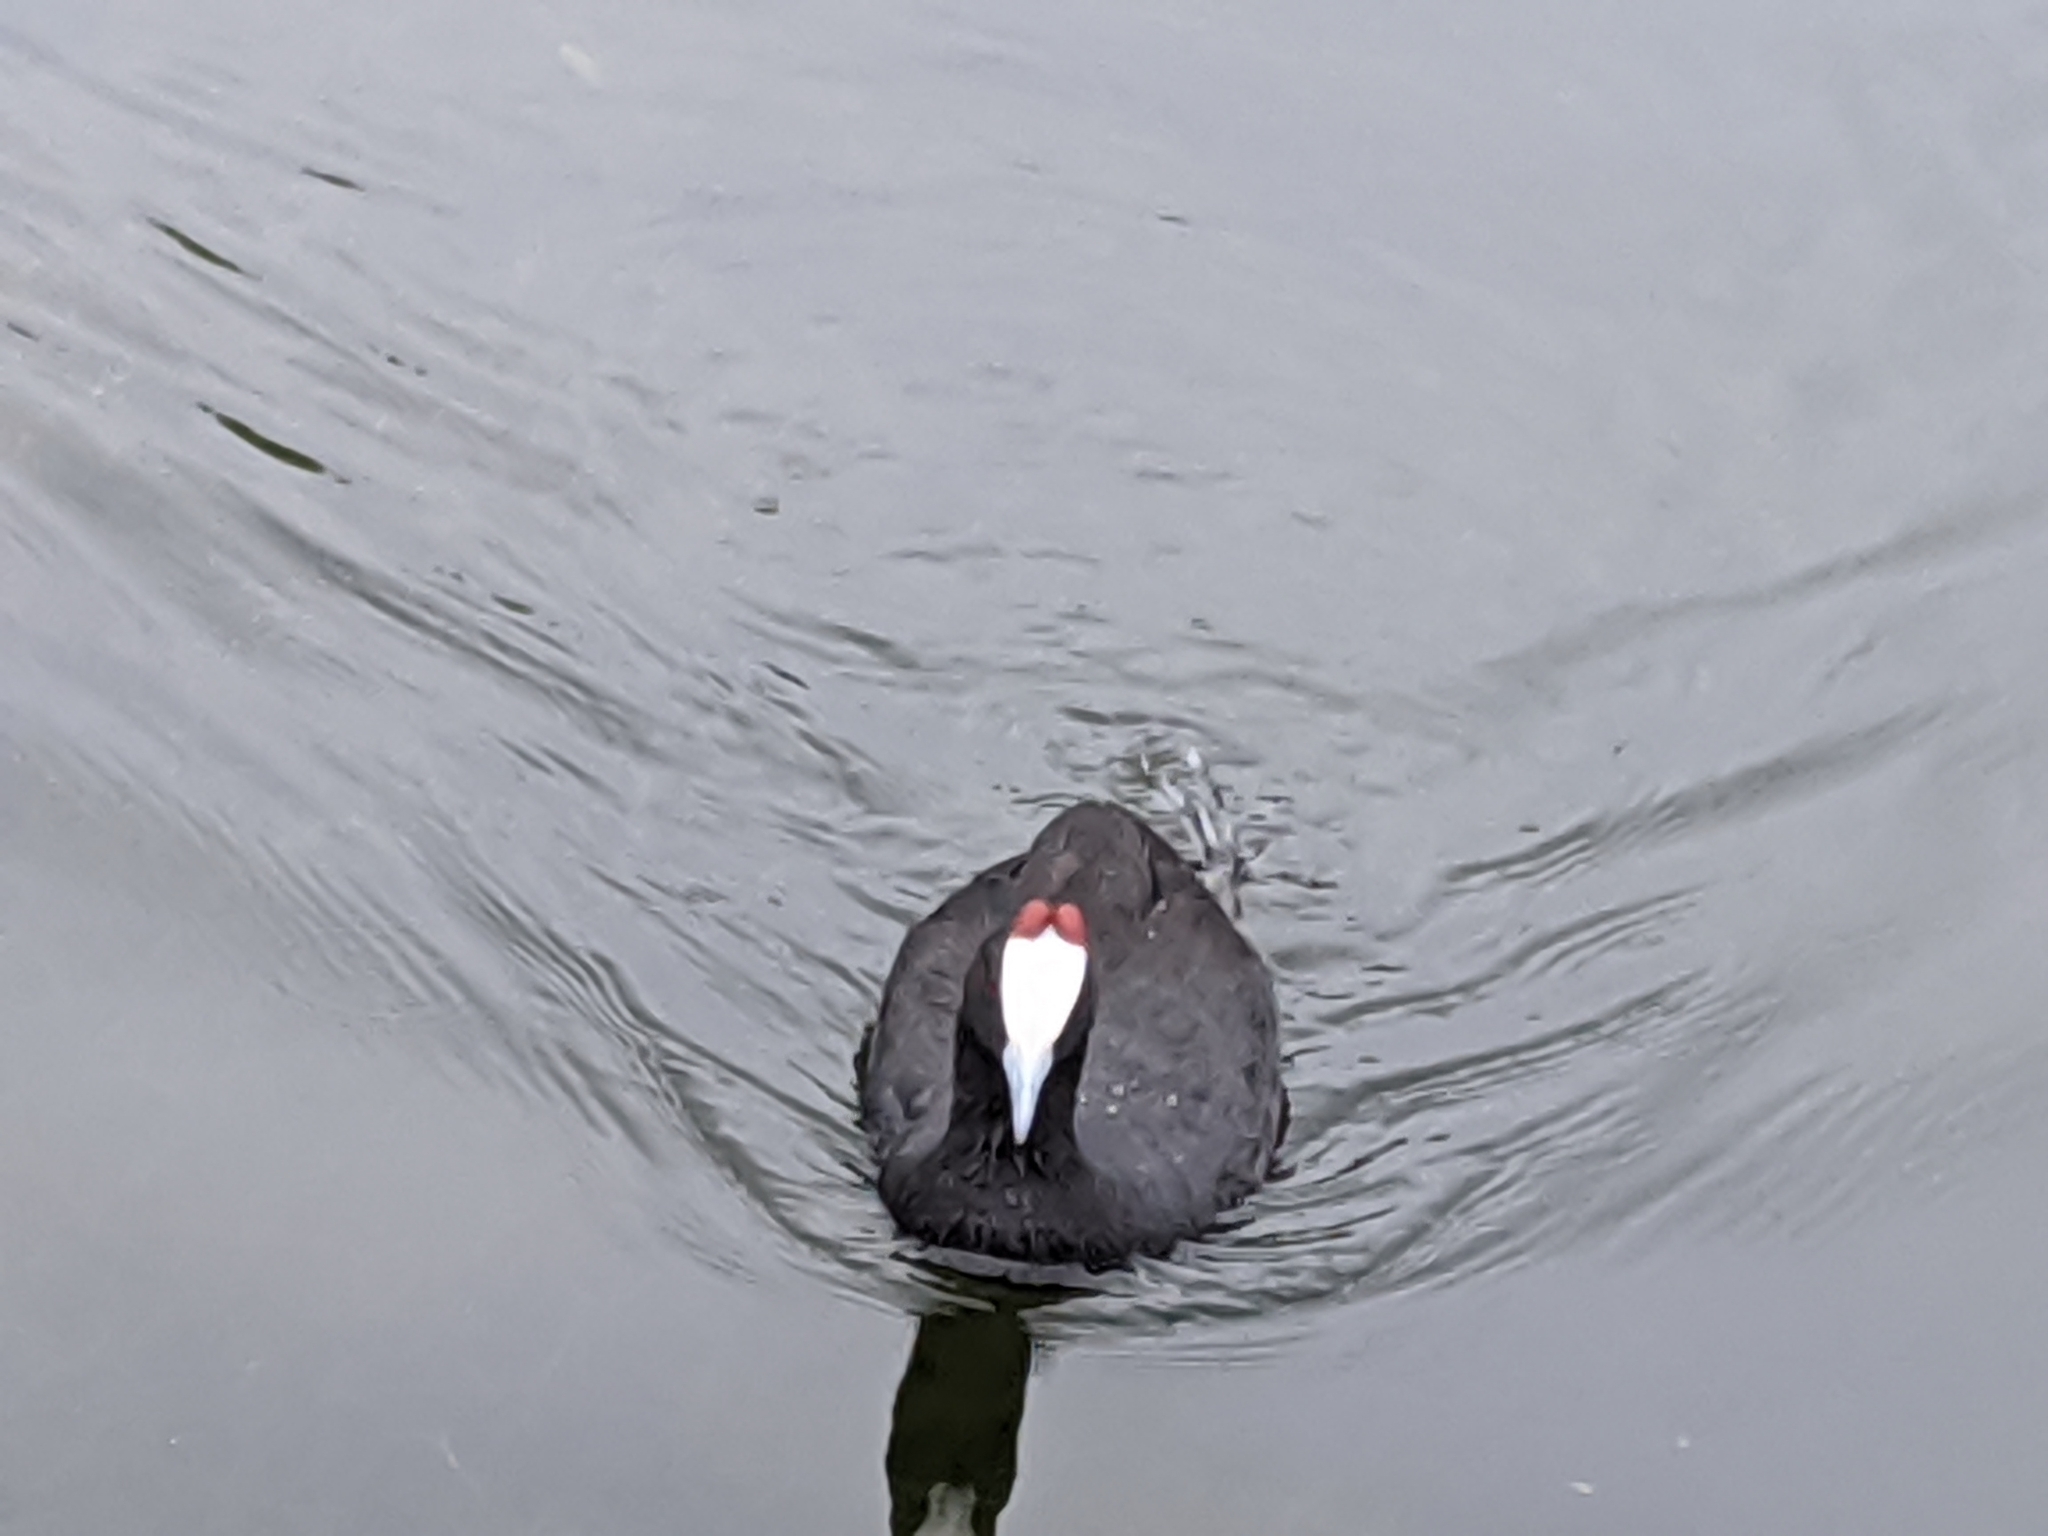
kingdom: Animalia
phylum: Chordata
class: Aves
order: Gruiformes
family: Rallidae
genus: Fulica
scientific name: Fulica cristata
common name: Red-knobbed coot
